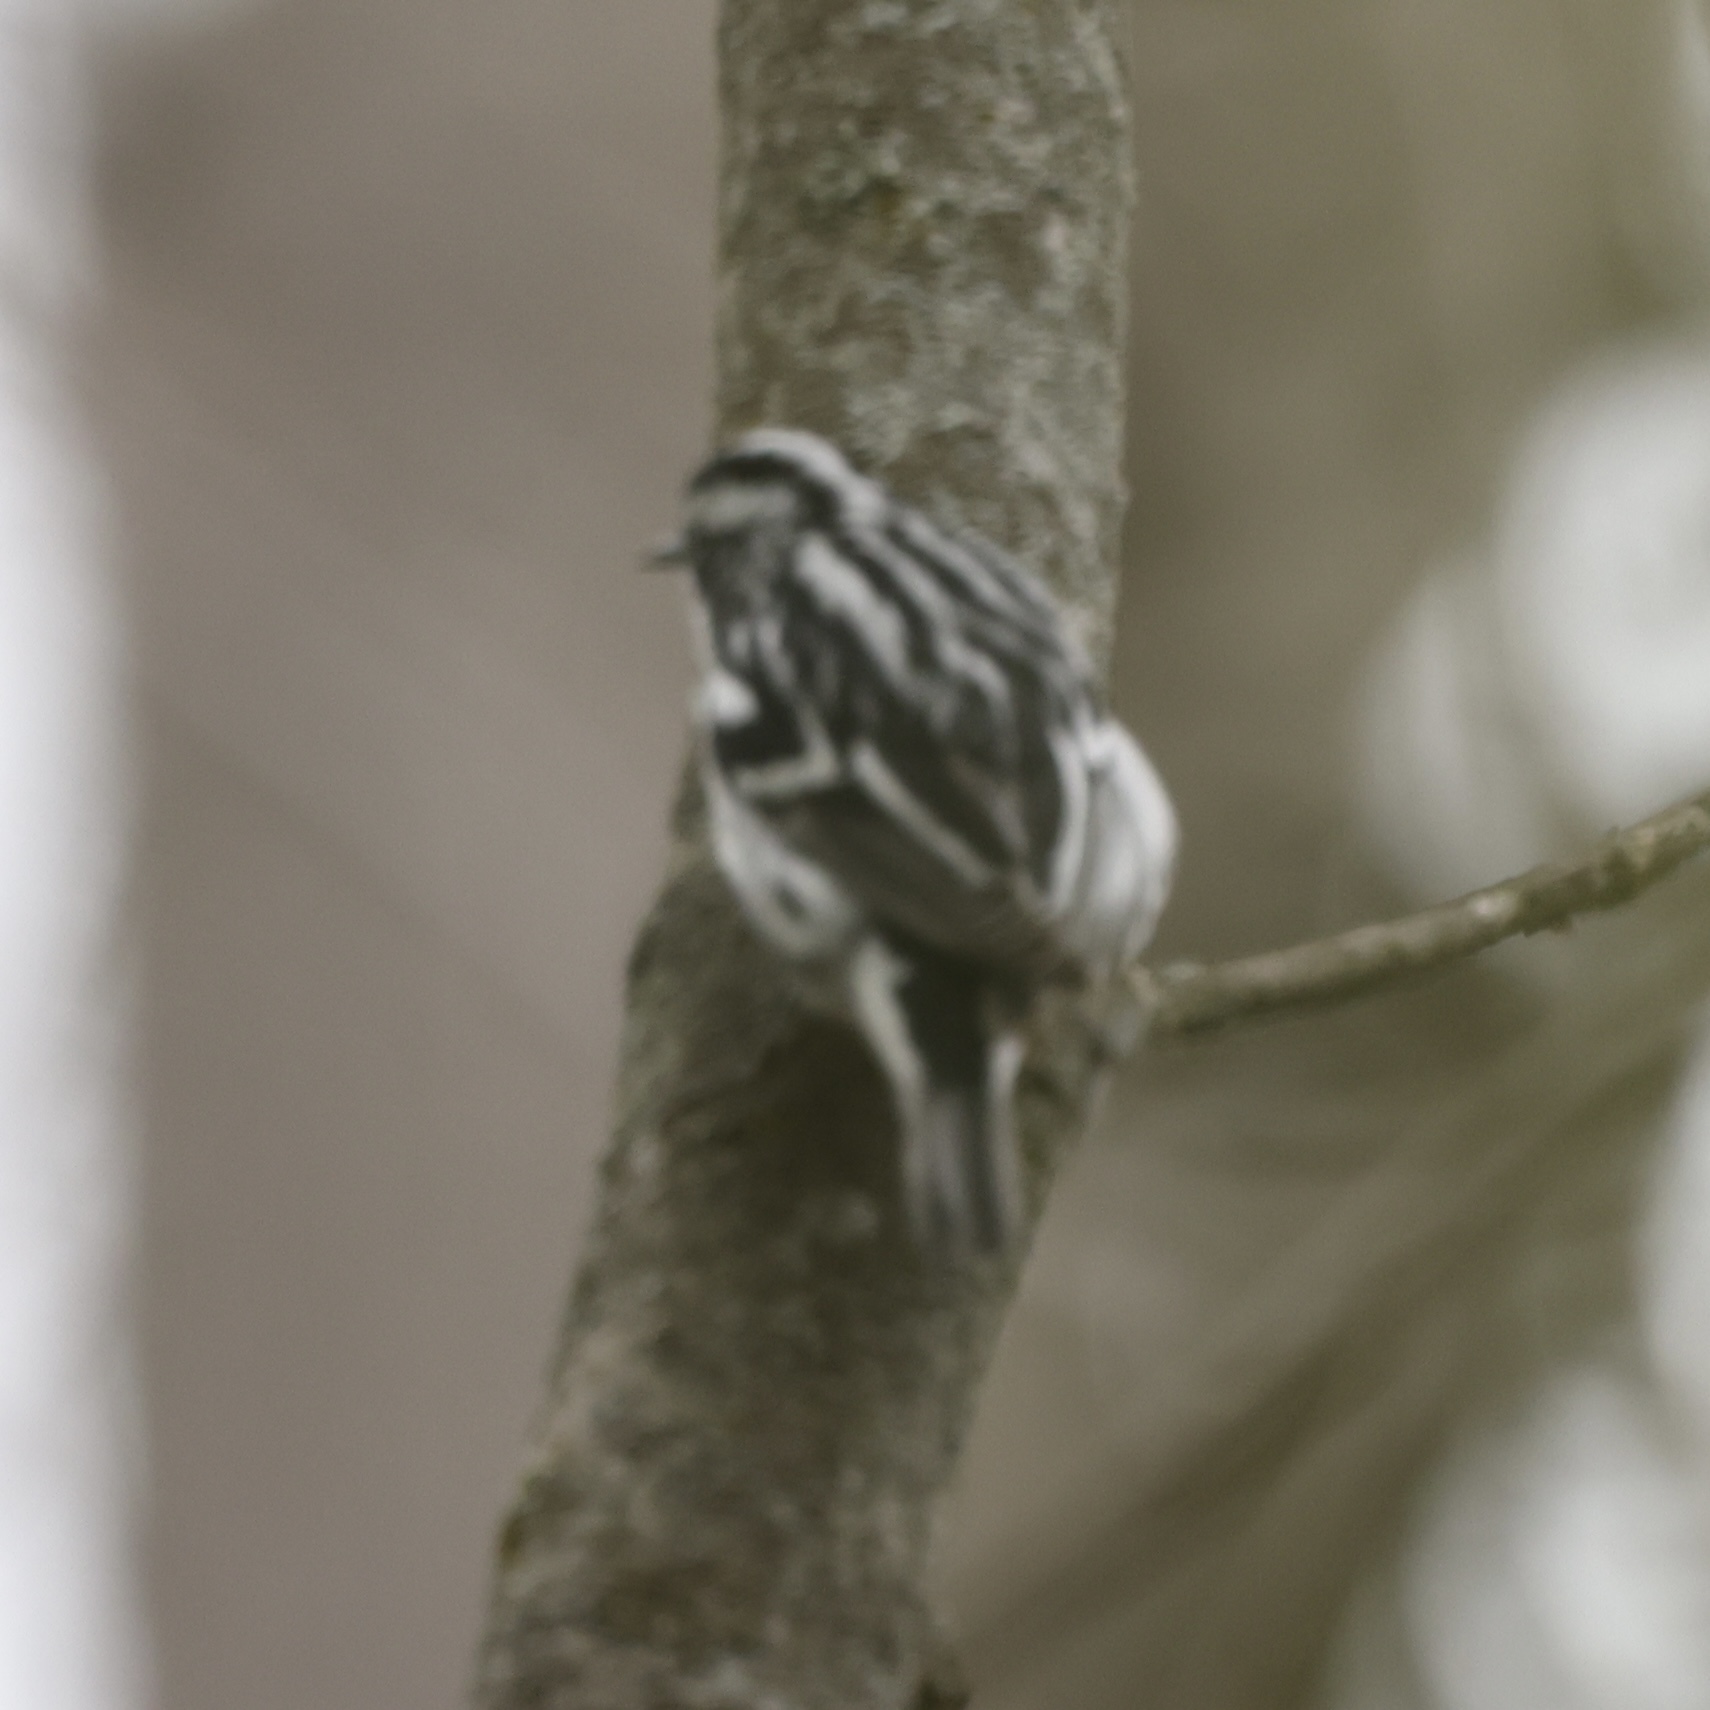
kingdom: Animalia
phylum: Chordata
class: Aves
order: Passeriformes
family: Parulidae
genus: Mniotilta
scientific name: Mniotilta varia
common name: Black-and-white warbler
